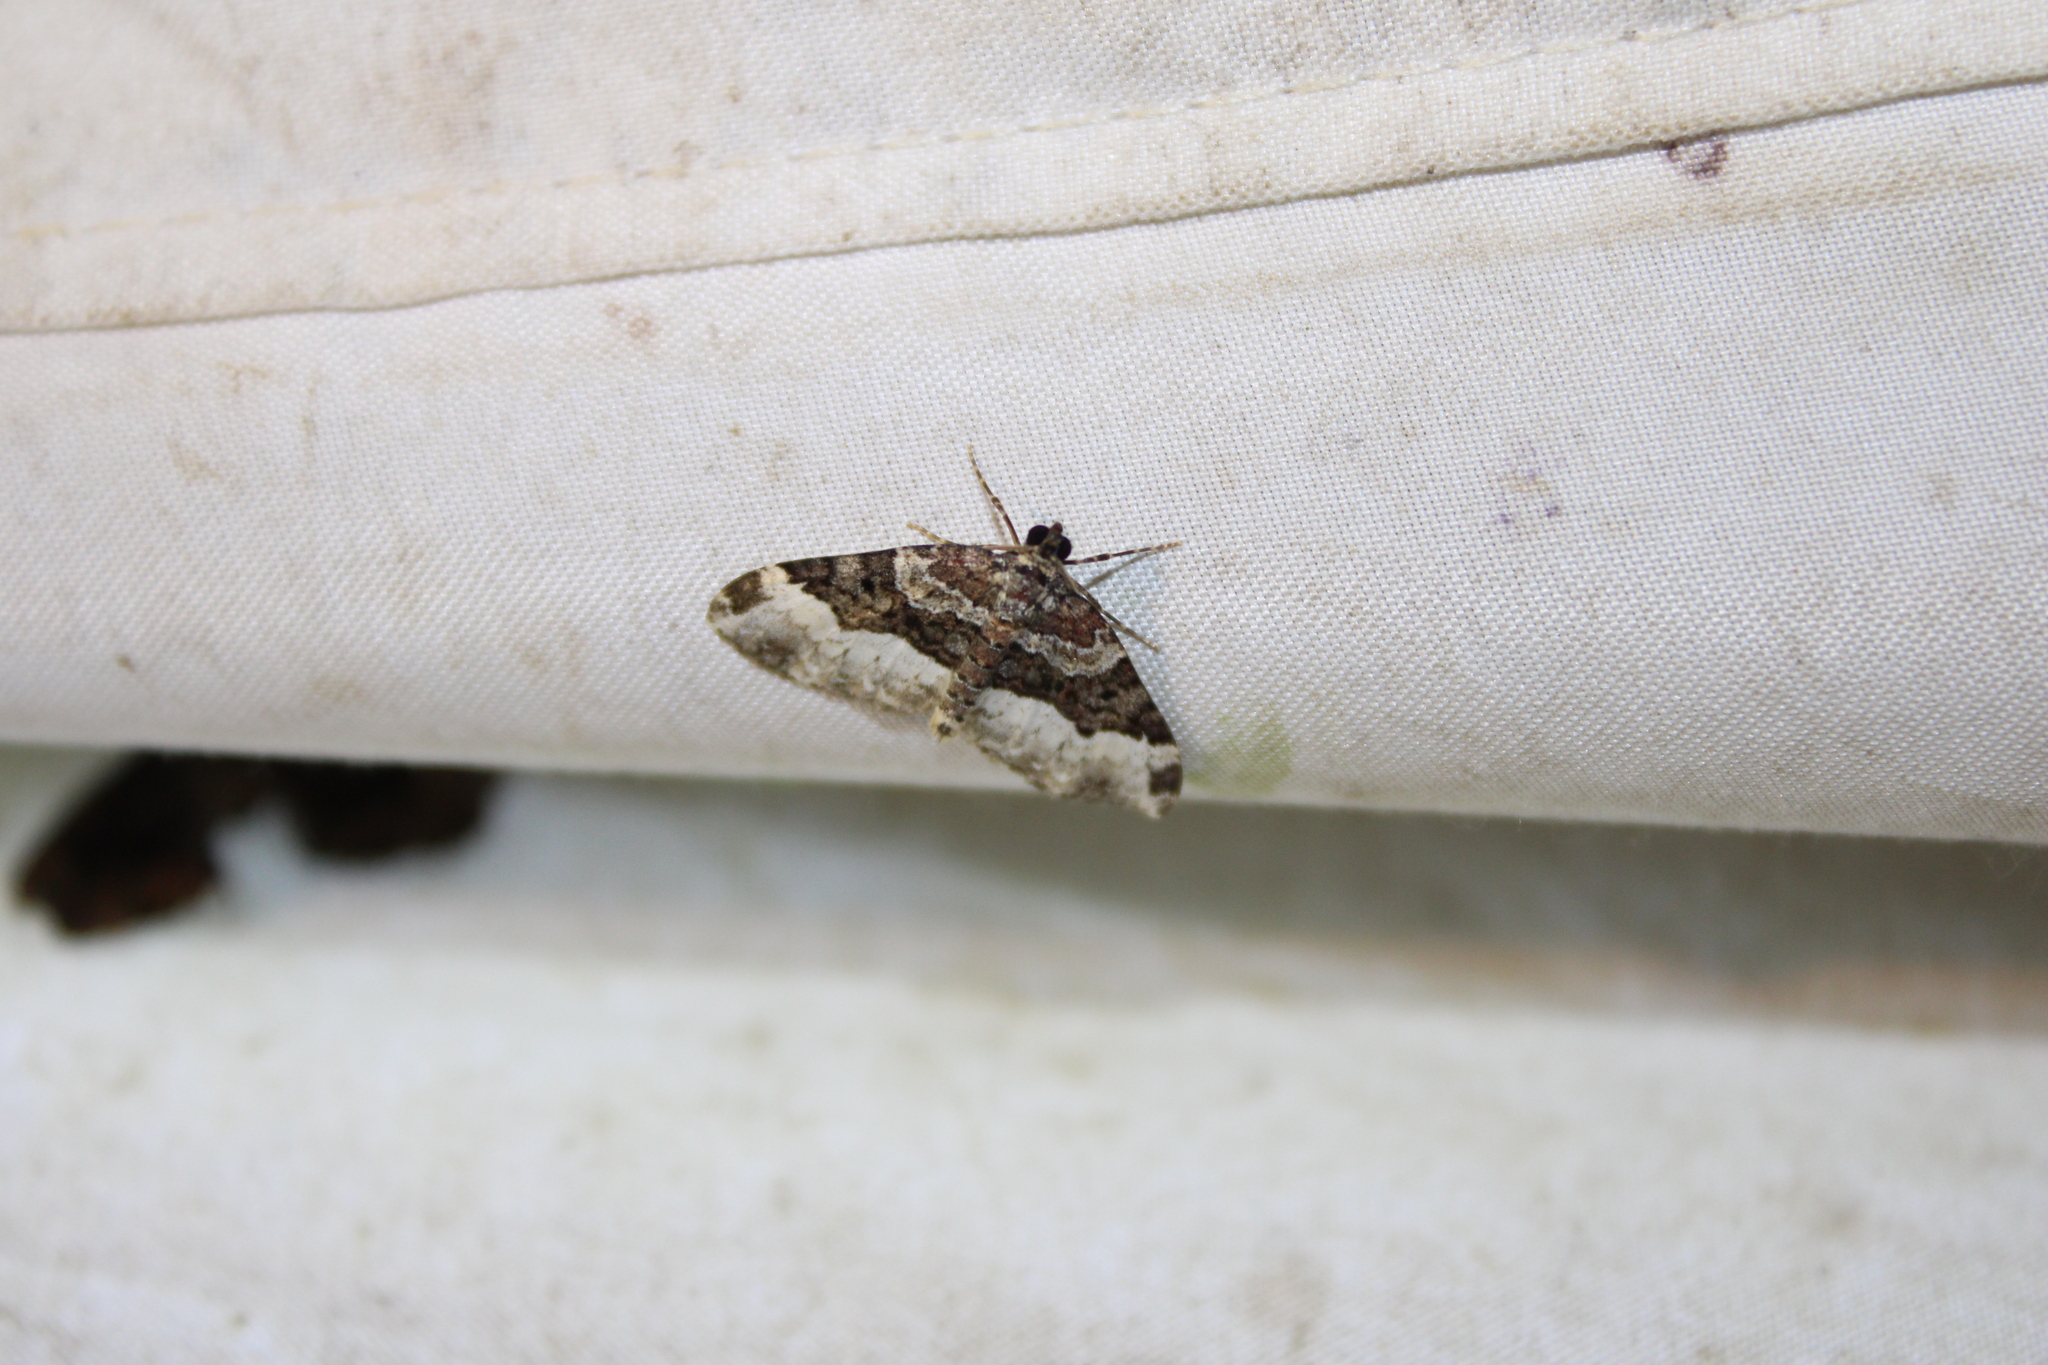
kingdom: Animalia
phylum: Arthropoda
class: Insecta
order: Lepidoptera
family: Geometridae
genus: Euphyia
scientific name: Euphyia intermediata
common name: Sharp-angled carpet
